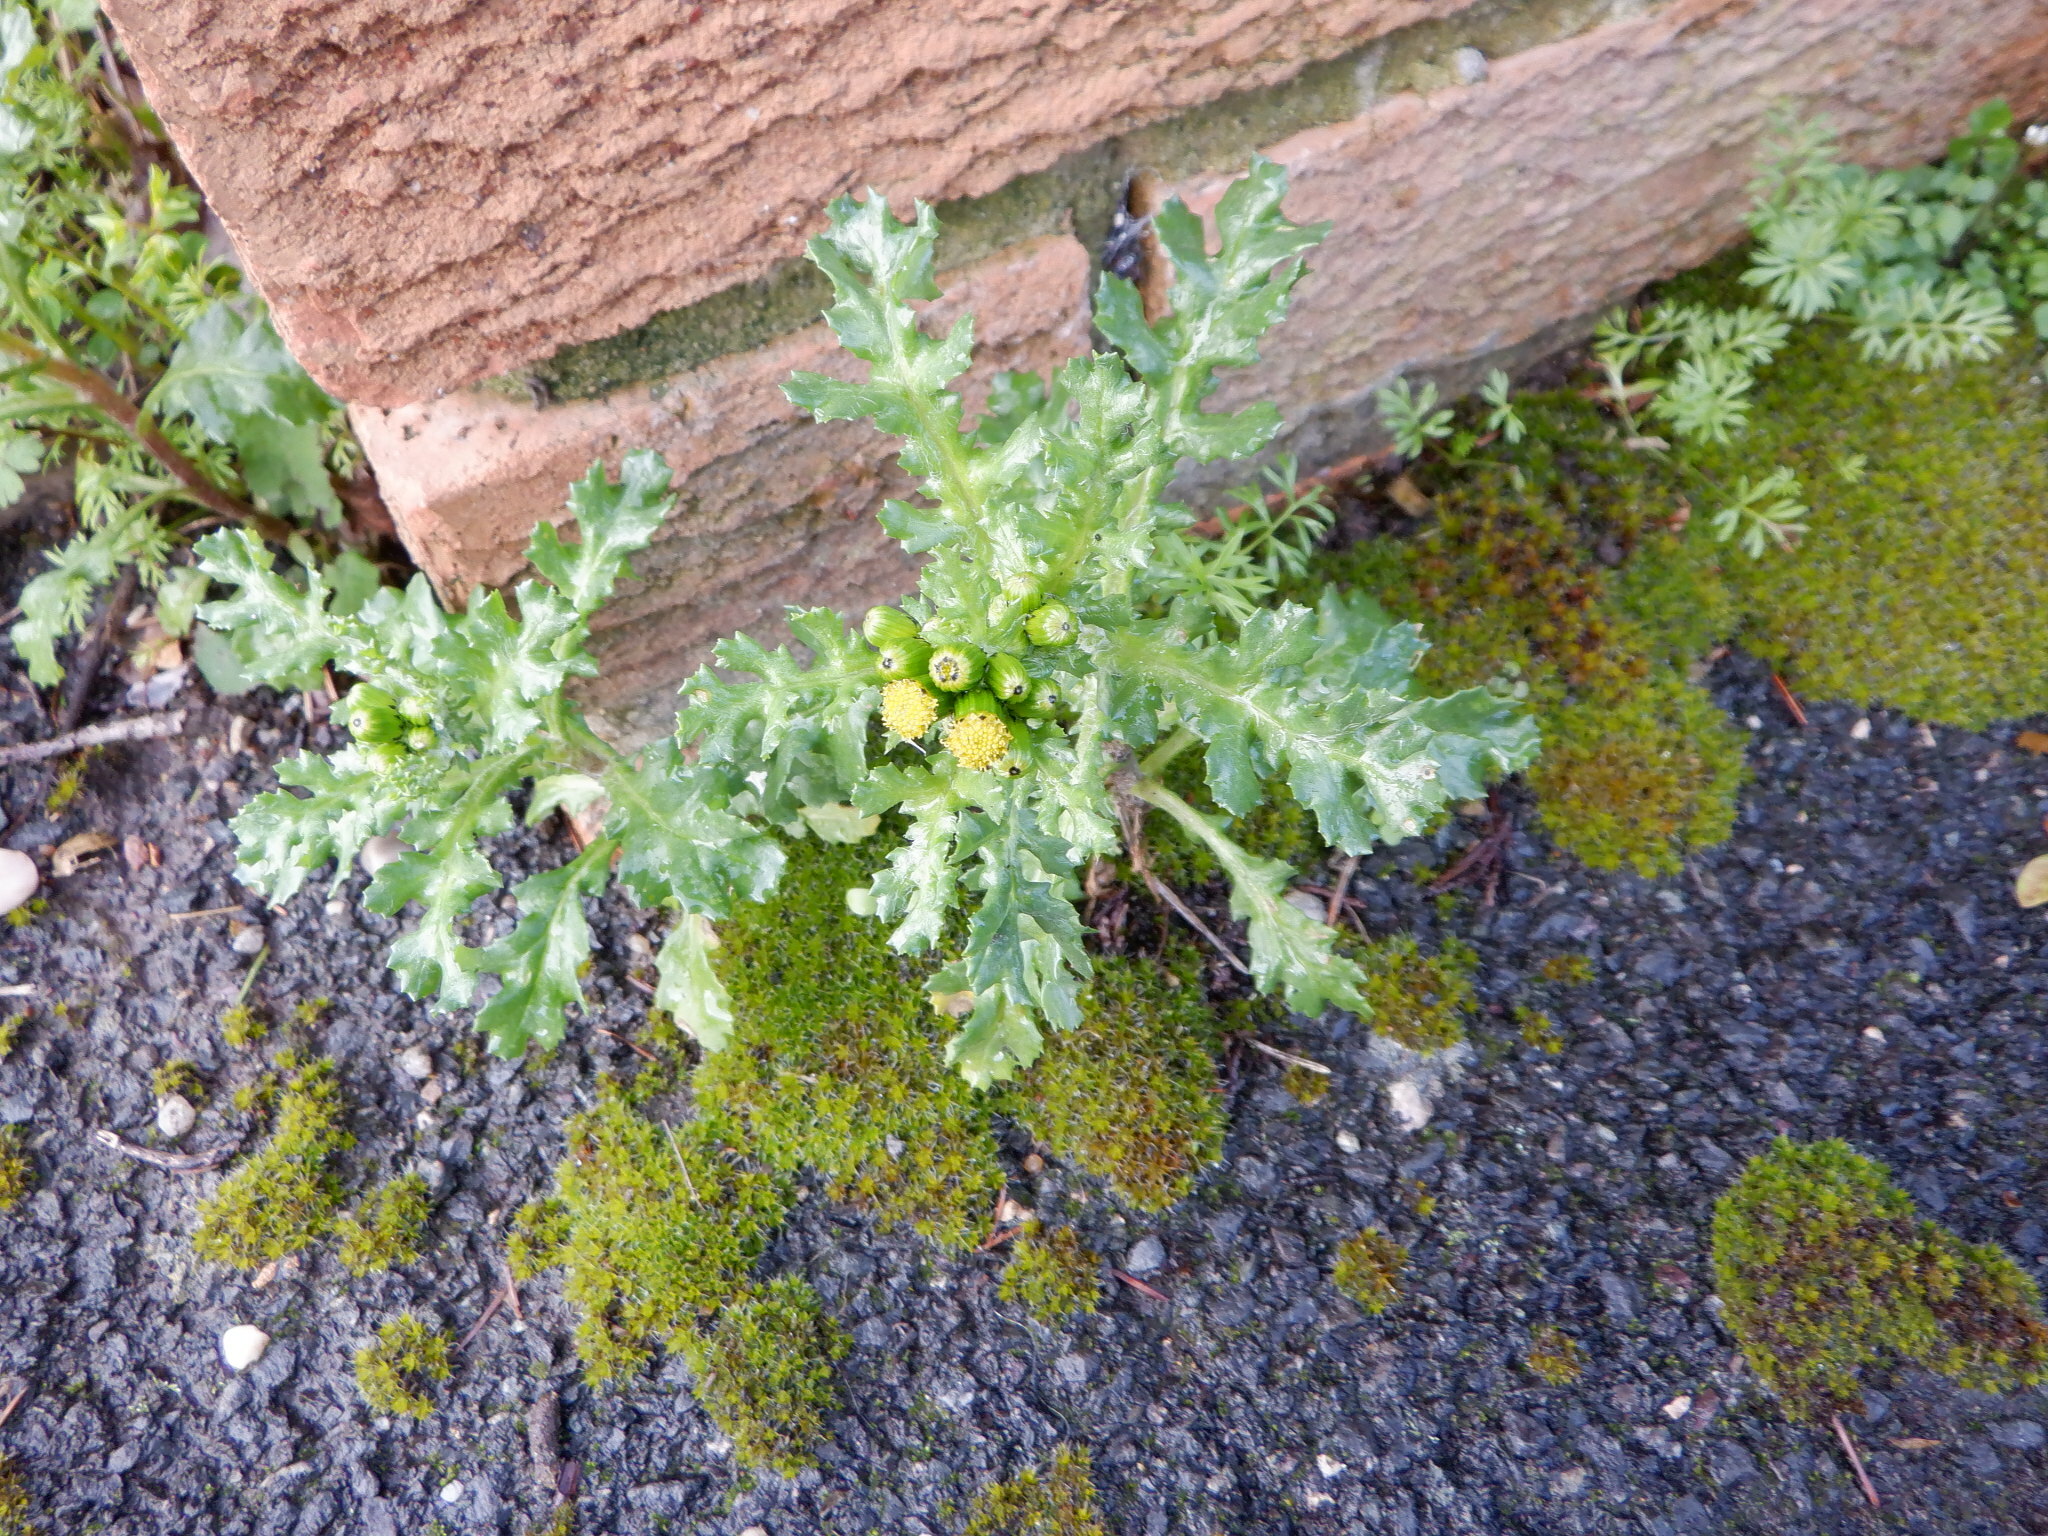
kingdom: Plantae
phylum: Tracheophyta
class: Magnoliopsida
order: Asterales
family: Asteraceae
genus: Senecio
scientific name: Senecio vulgaris
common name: Old-man-in-the-spring
